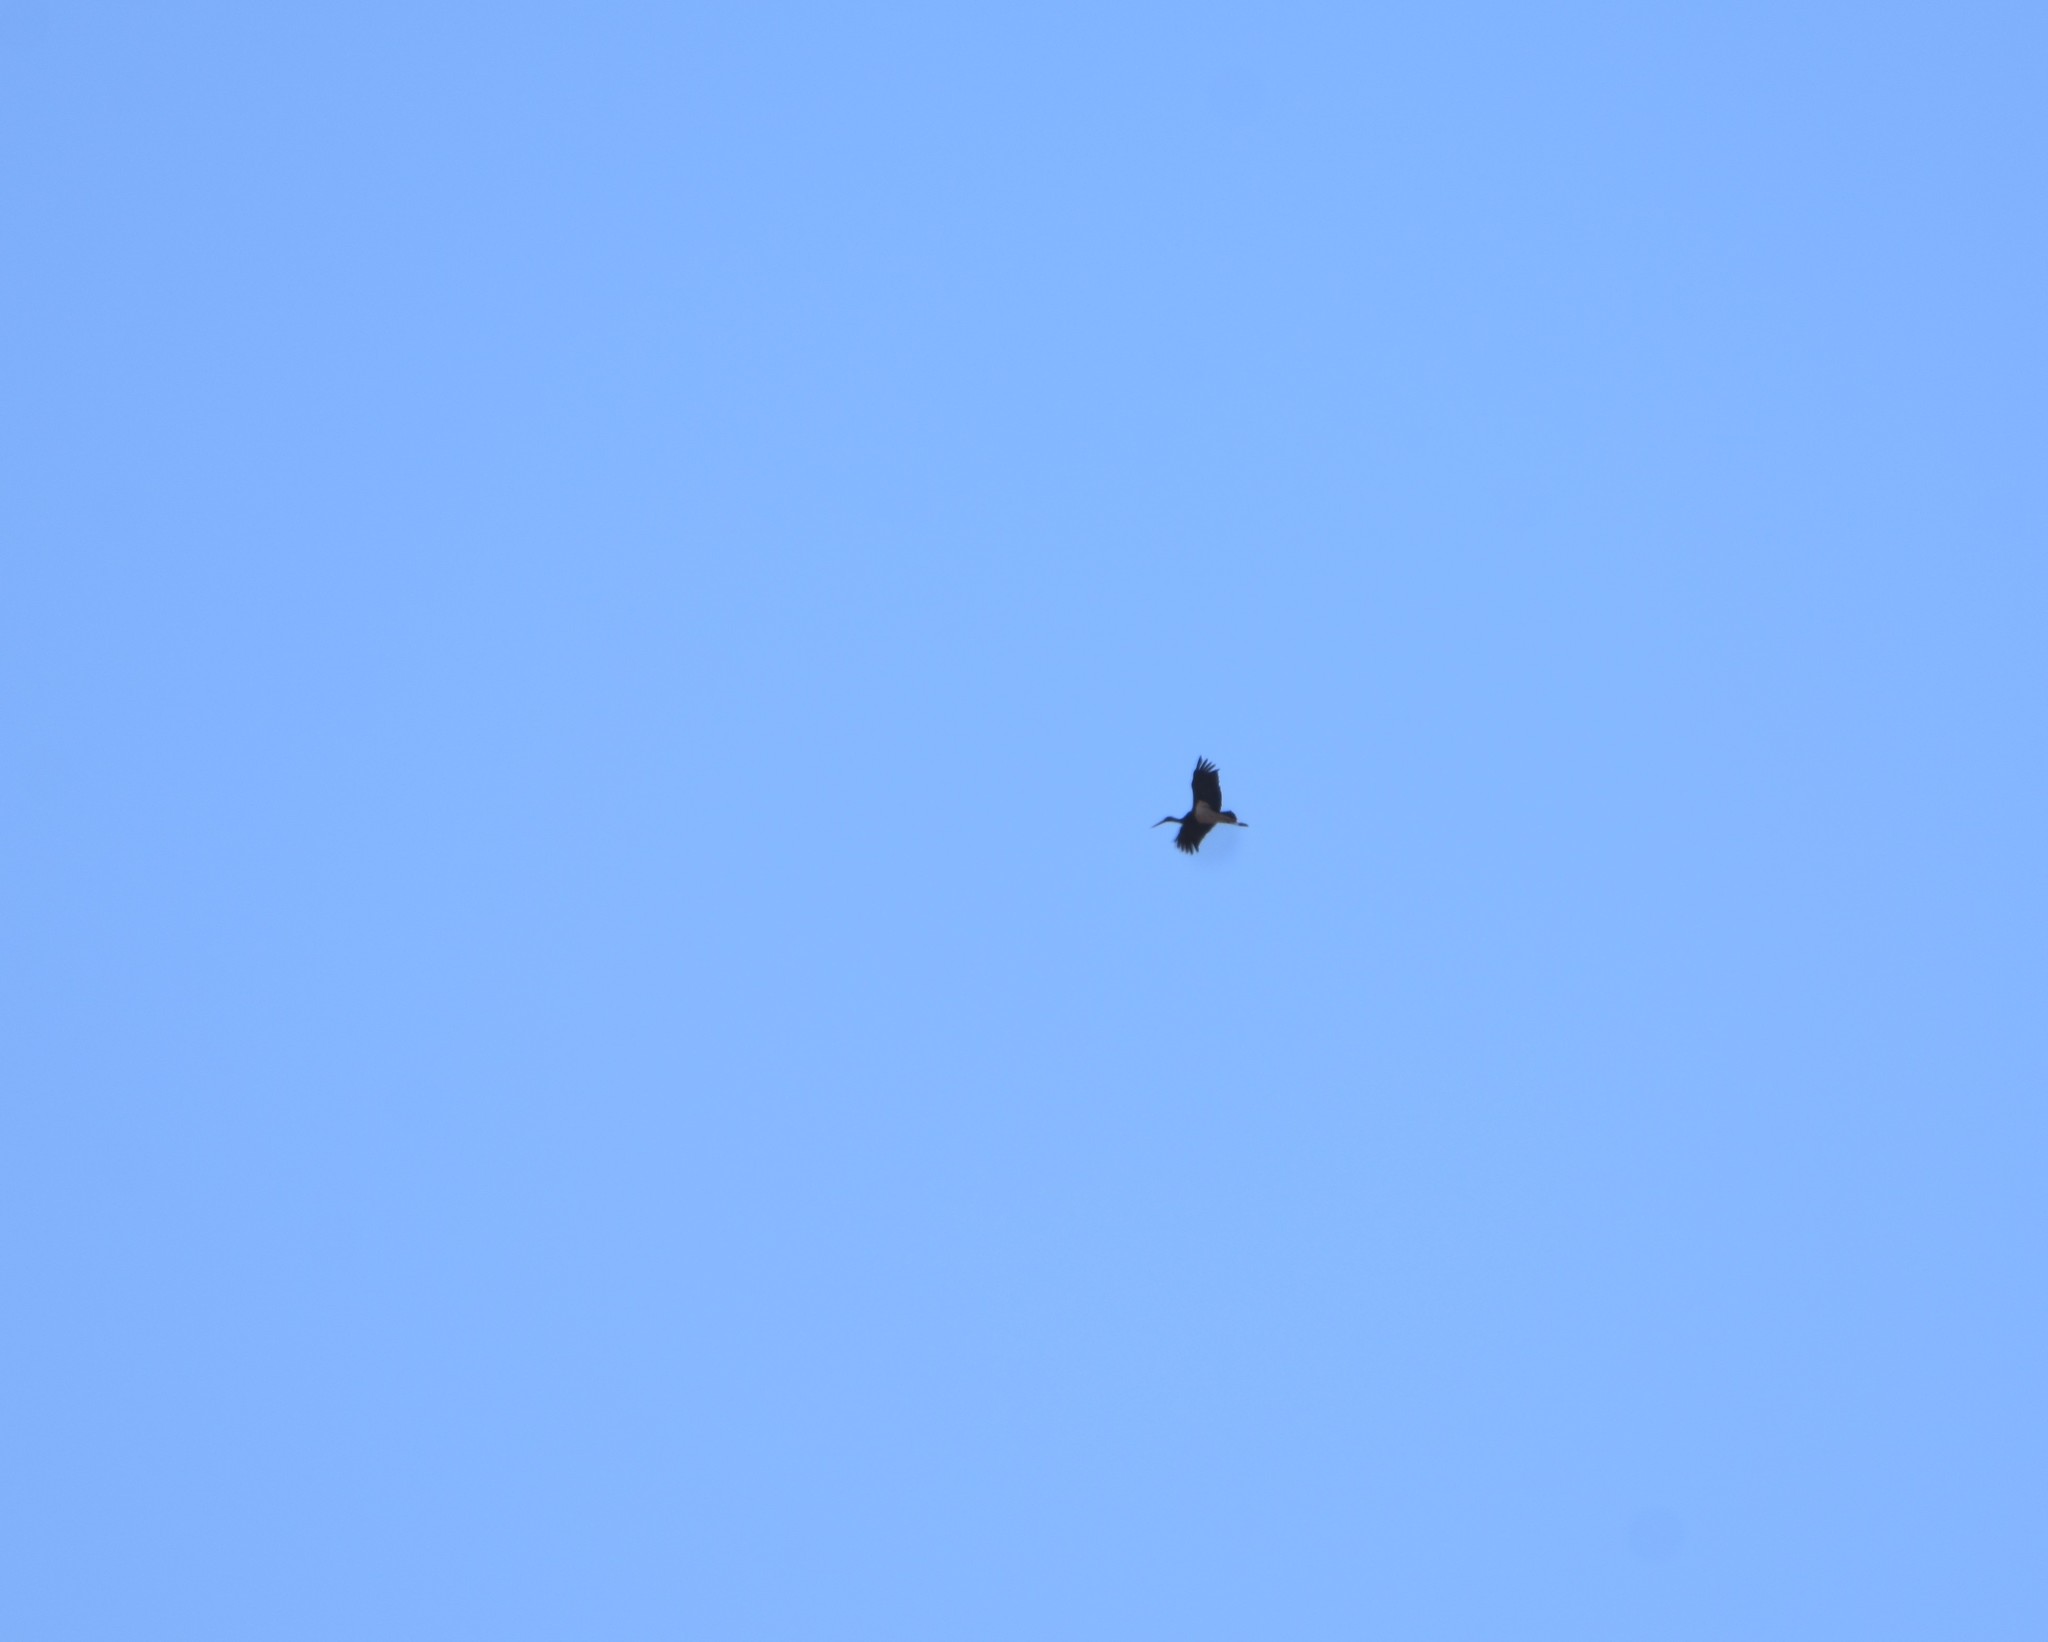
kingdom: Animalia
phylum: Chordata
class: Aves
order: Ciconiiformes
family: Ciconiidae
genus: Ciconia
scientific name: Ciconia nigra
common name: Black stork
